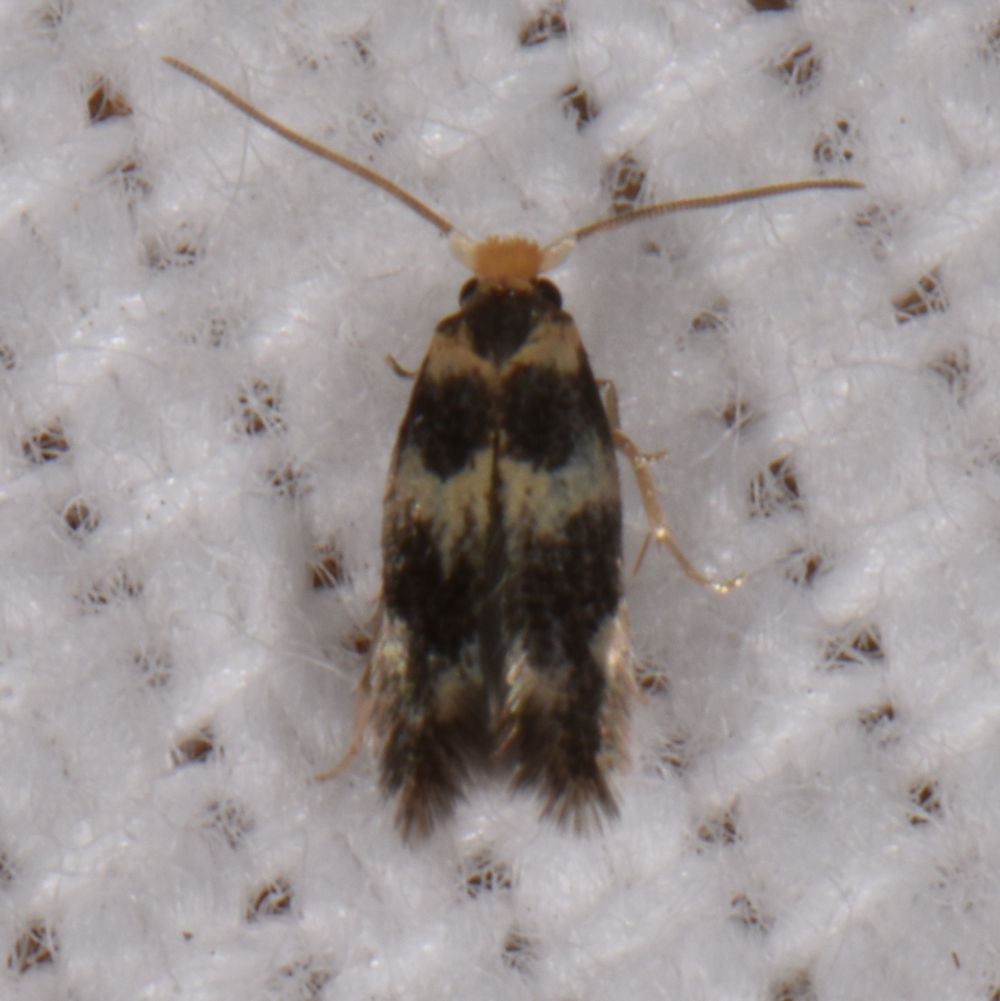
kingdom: Animalia
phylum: Arthropoda
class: Insecta
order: Lepidoptera
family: Nepticulidae
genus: Etainia
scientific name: Etainia sericopeza
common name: Leafminer
